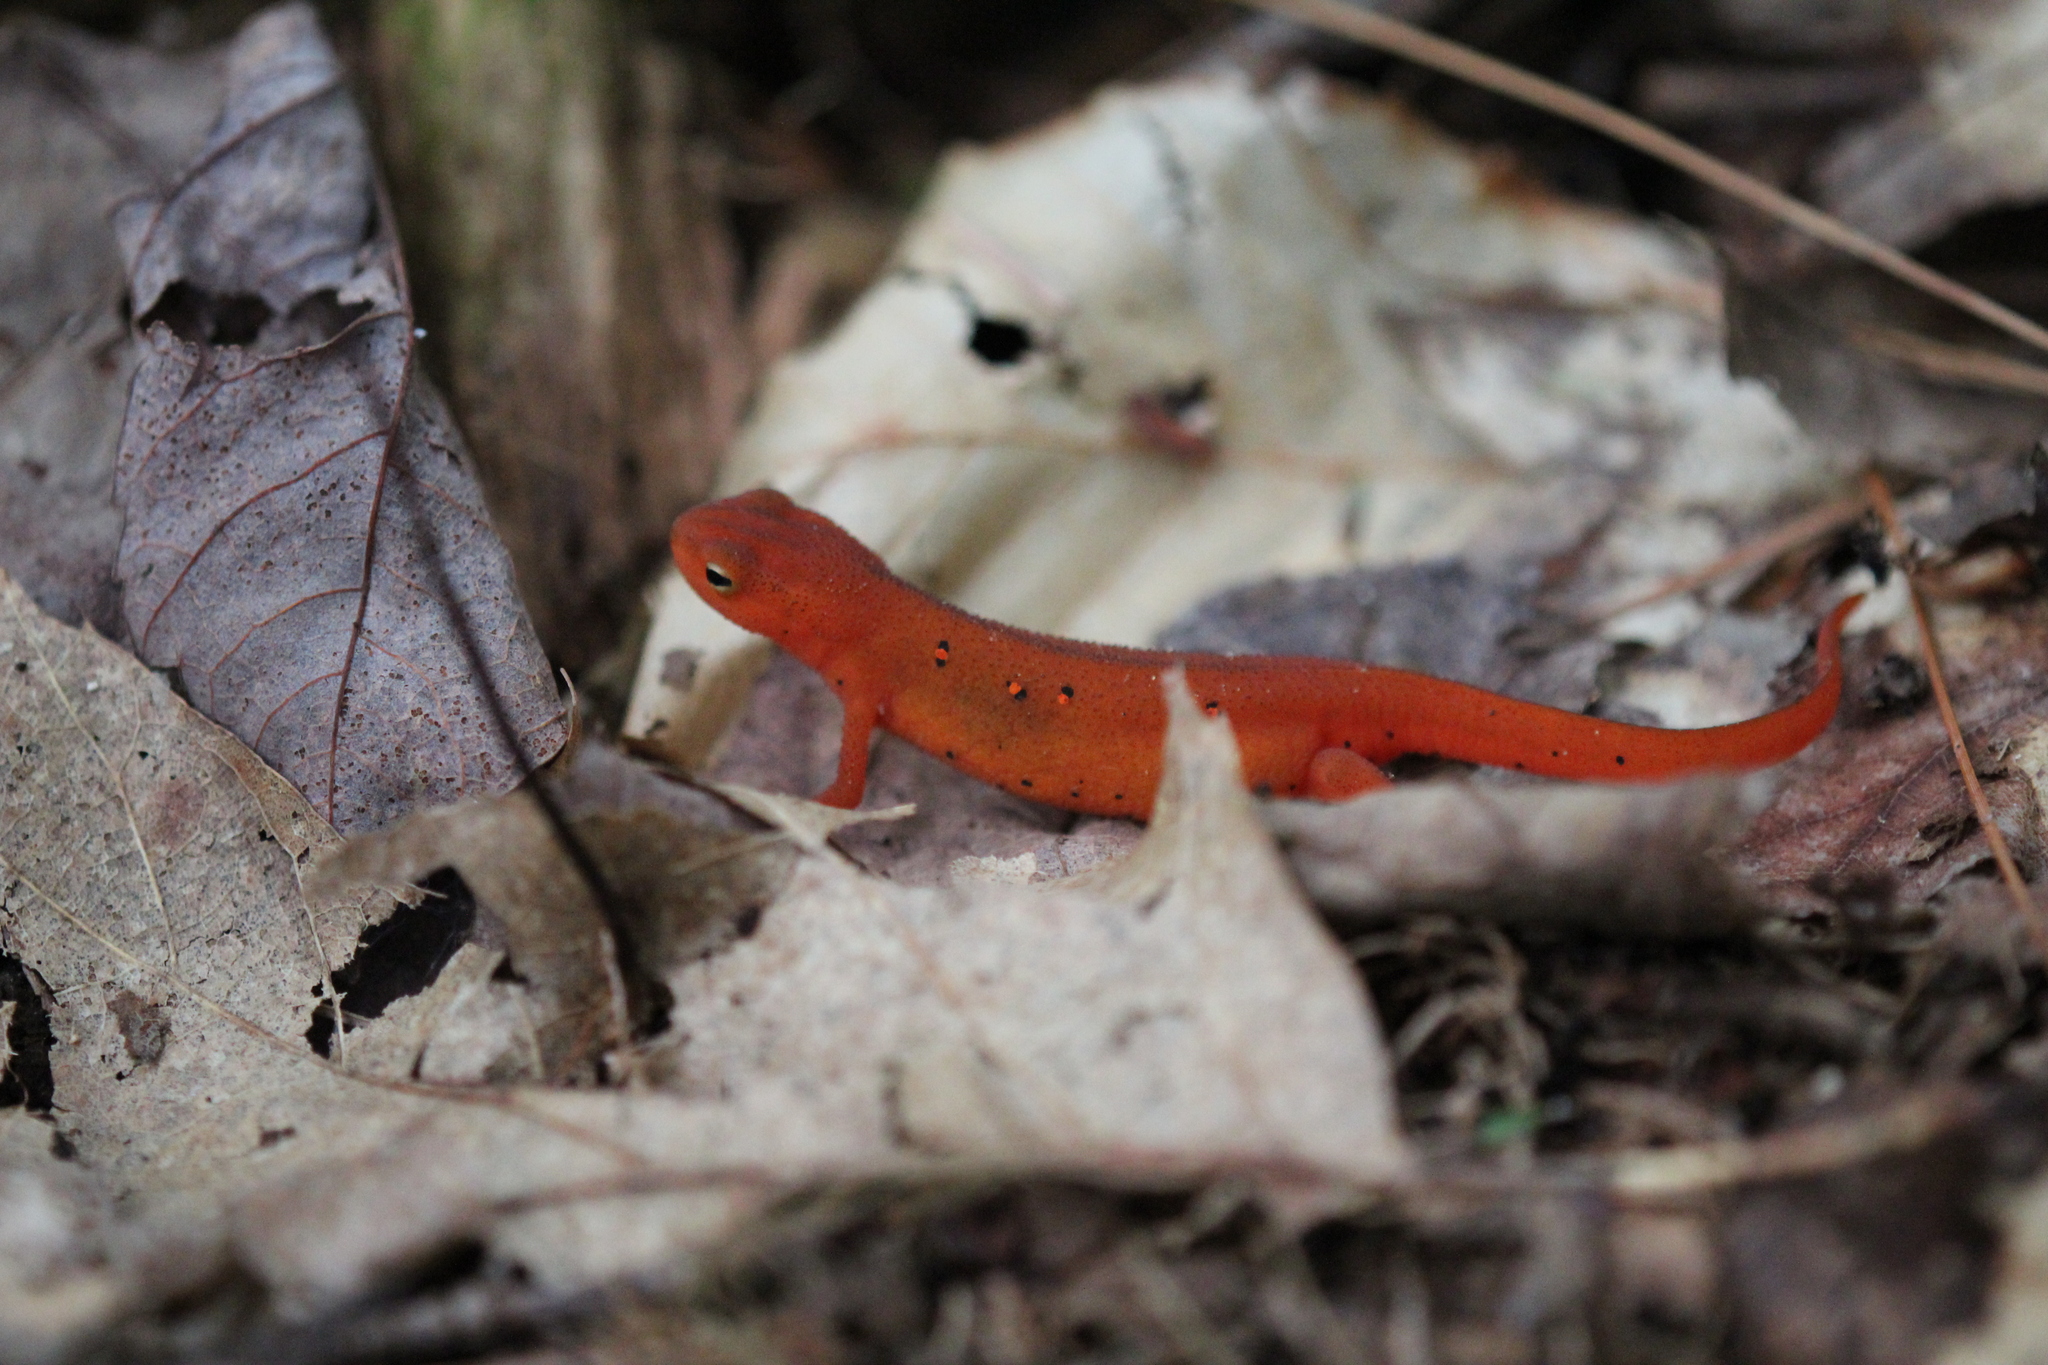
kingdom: Animalia
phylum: Chordata
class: Amphibia
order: Caudata
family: Salamandridae
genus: Notophthalmus
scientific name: Notophthalmus viridescens
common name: Eastern newt
